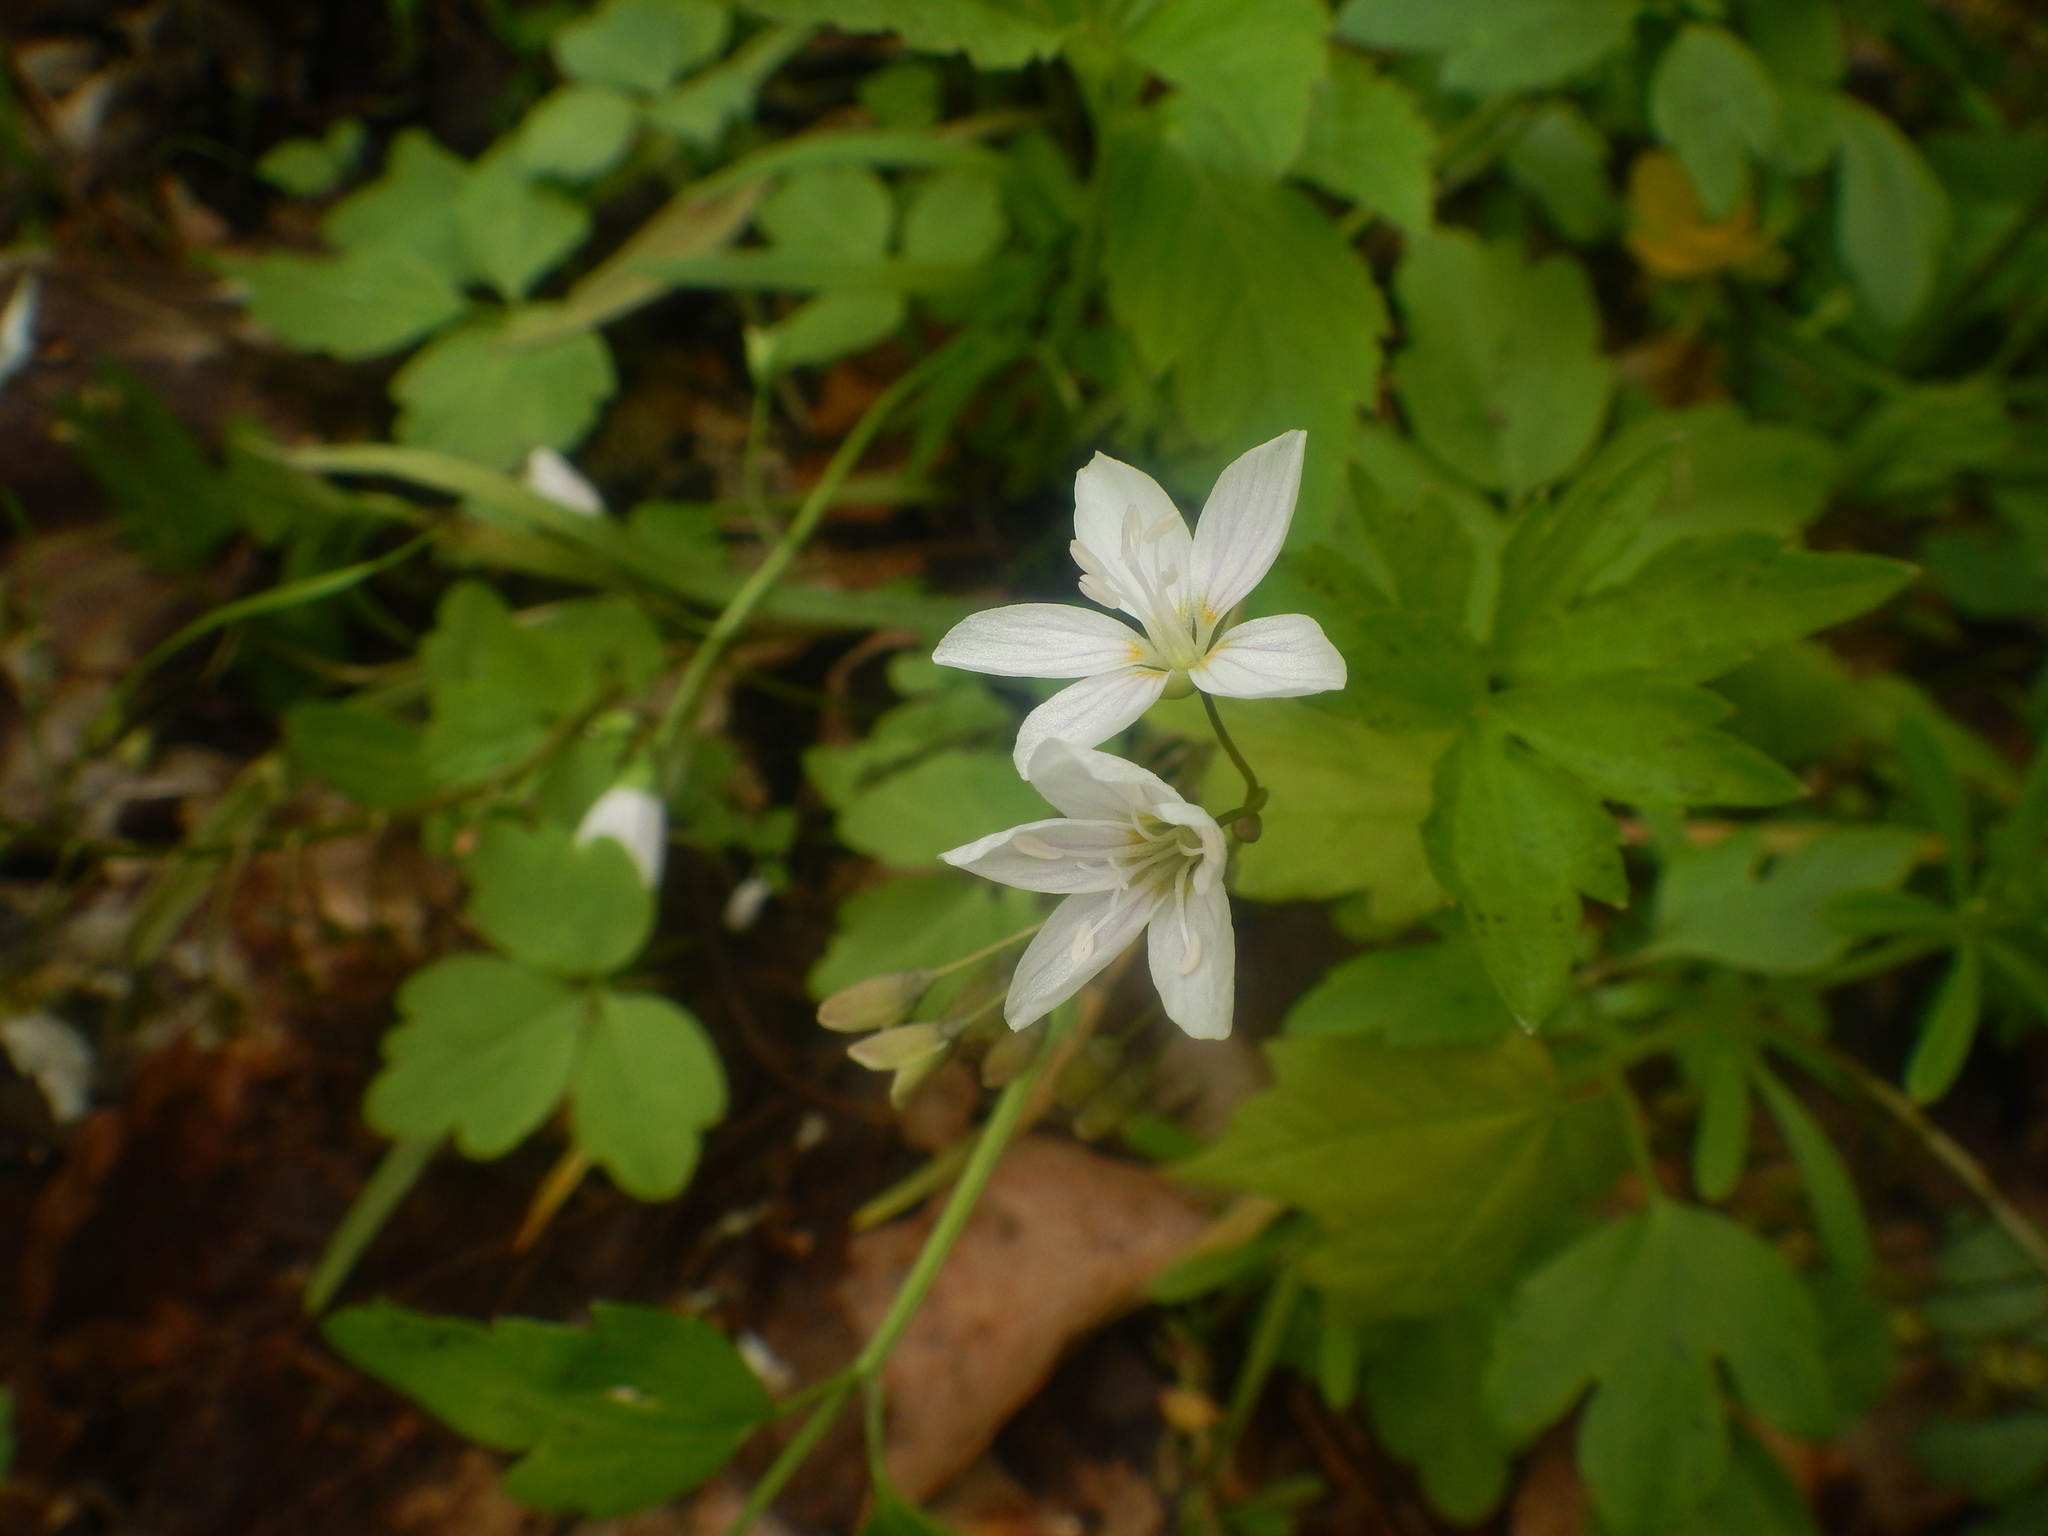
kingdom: Plantae
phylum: Tracheophyta
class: Magnoliopsida
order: Caryophyllales
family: Montiaceae
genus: Claytonia
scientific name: Claytonia virginica
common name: Virginia springbeauty
